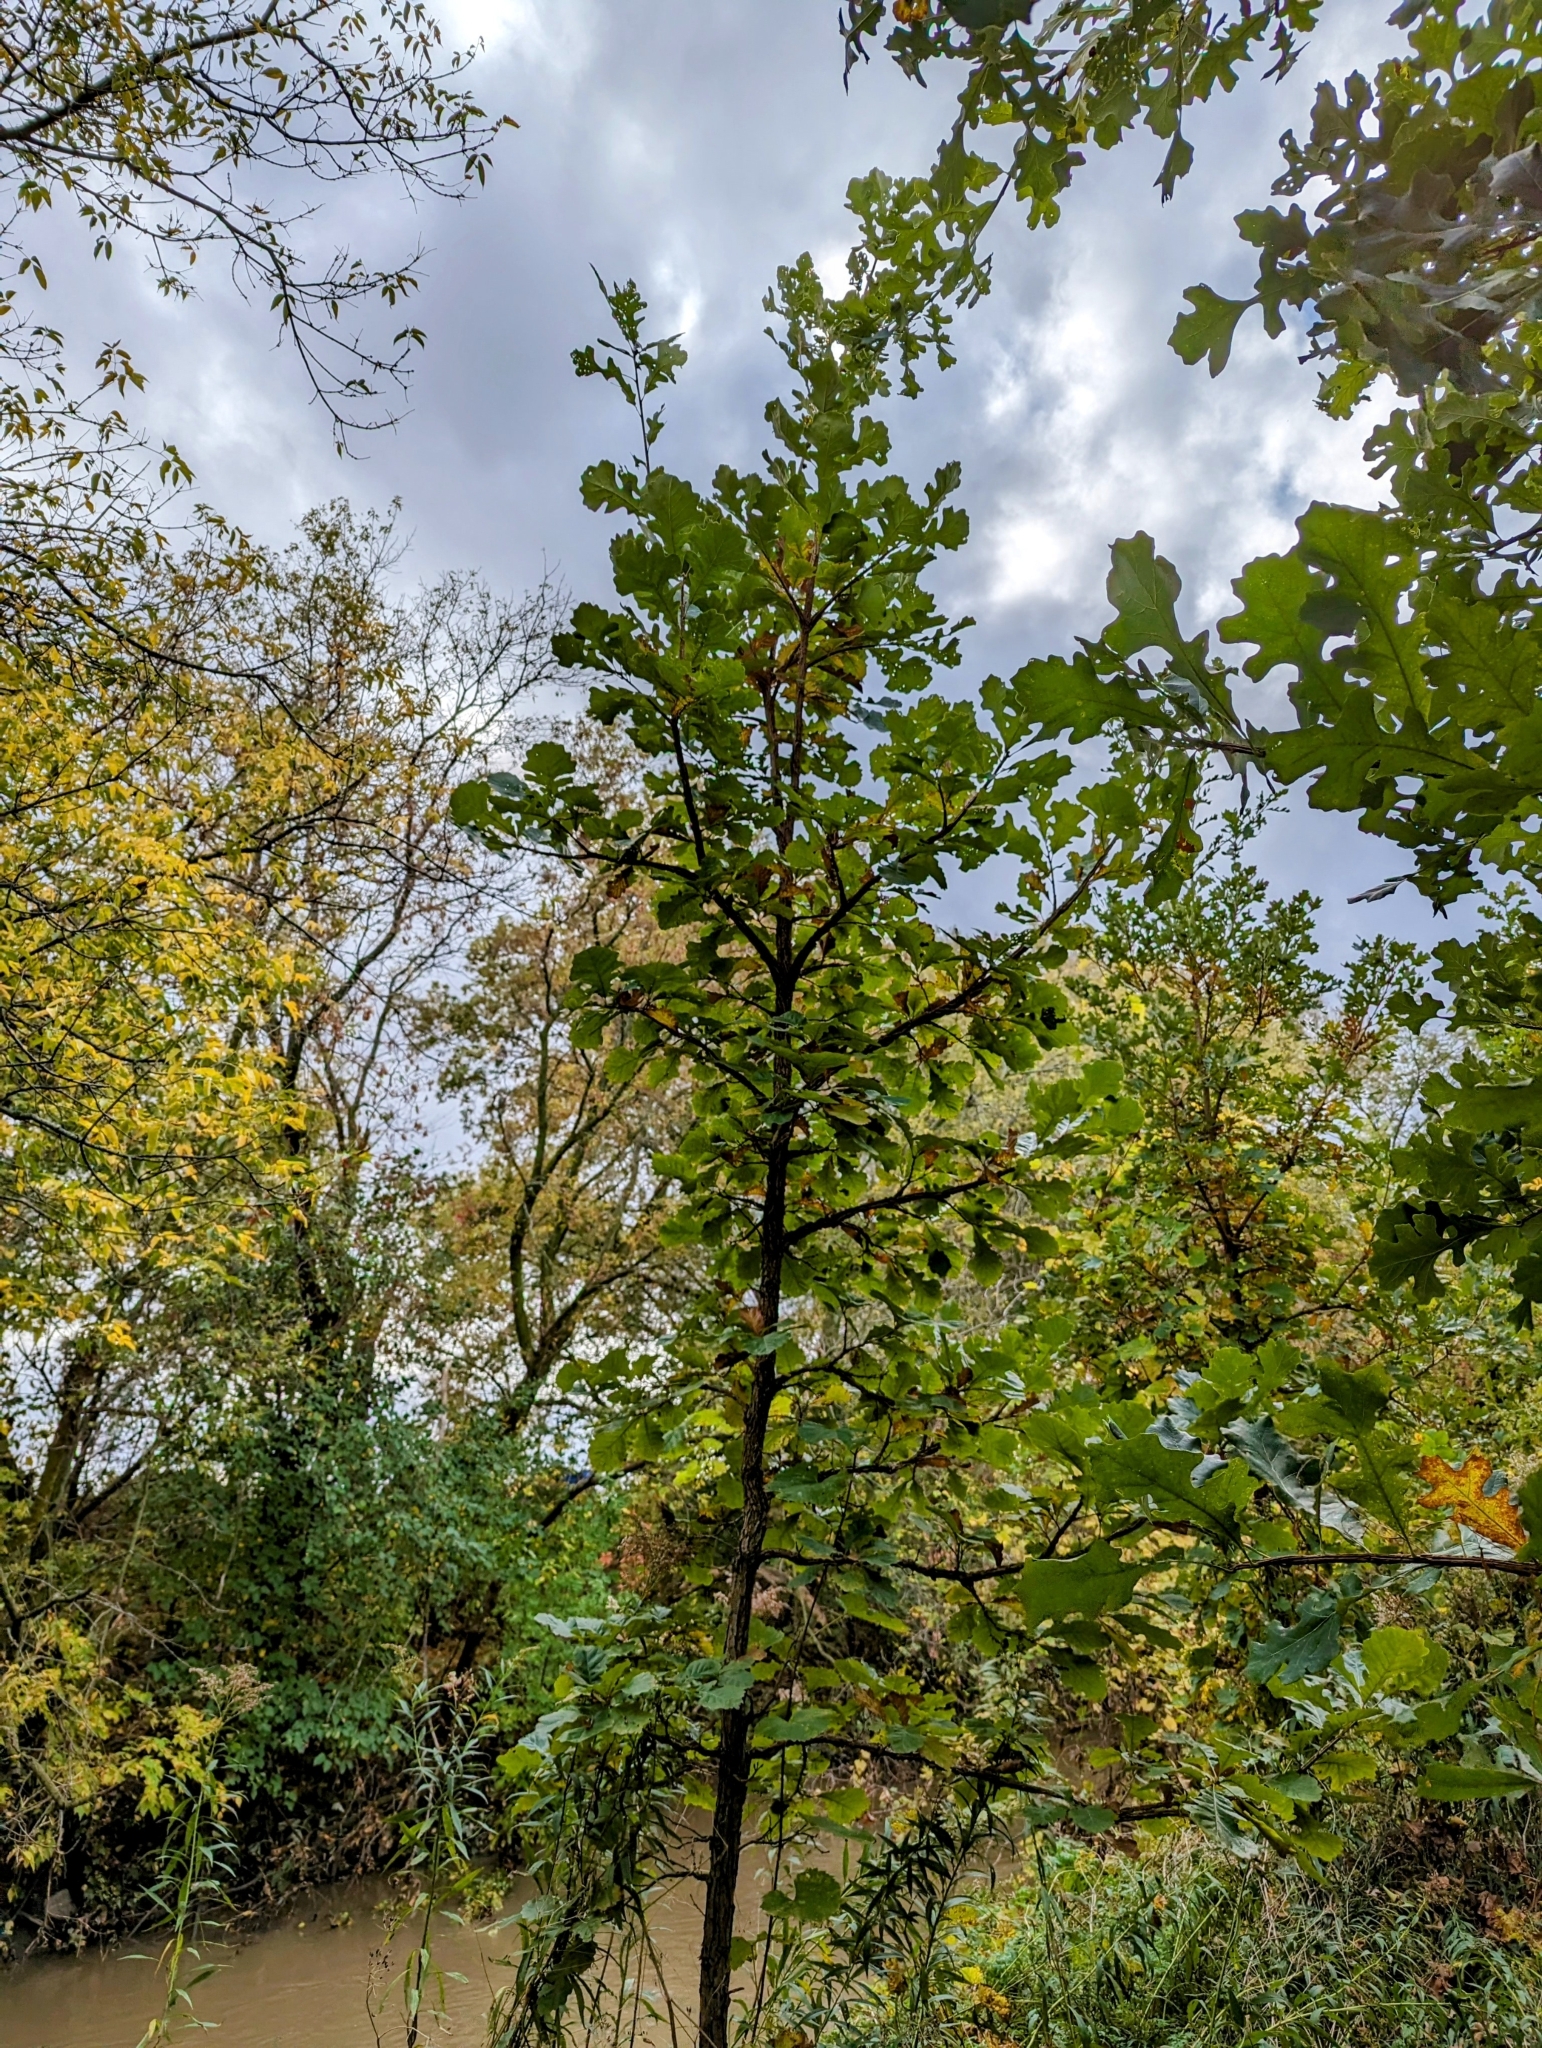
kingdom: Plantae
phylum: Tracheophyta
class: Magnoliopsida
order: Fagales
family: Fagaceae
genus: Quercus
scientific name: Quercus macrocarpa
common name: Bur oak
